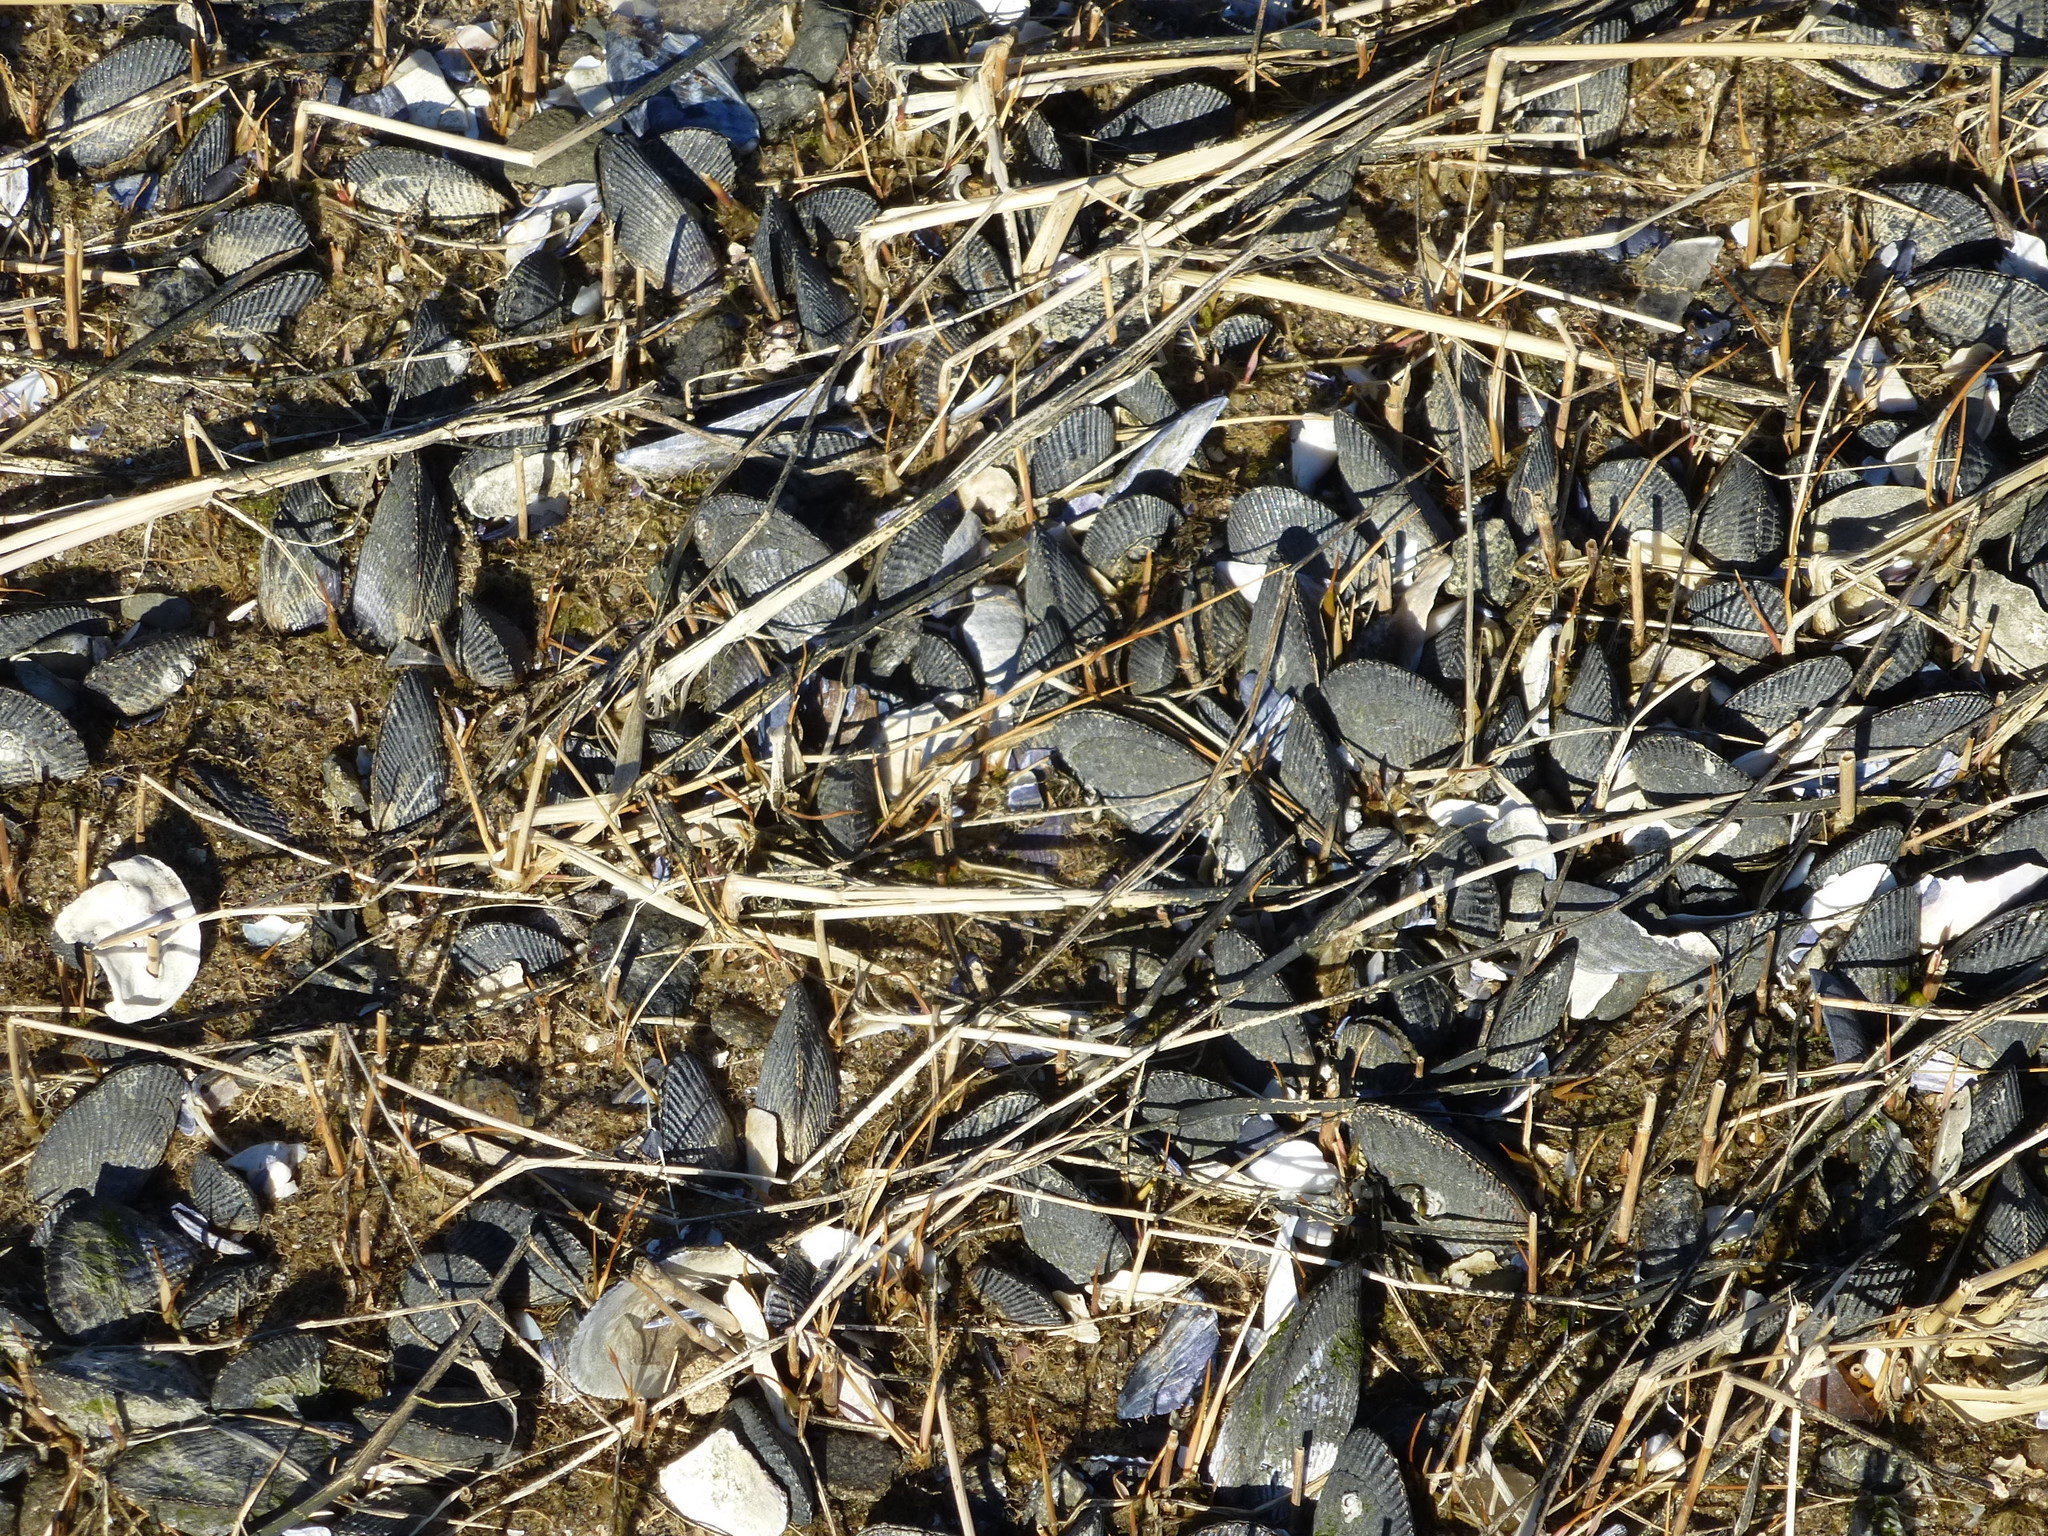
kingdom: Animalia
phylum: Mollusca
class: Bivalvia
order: Mytilida
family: Mytilidae
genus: Geukensia
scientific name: Geukensia demissa
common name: Ribbed mussel
